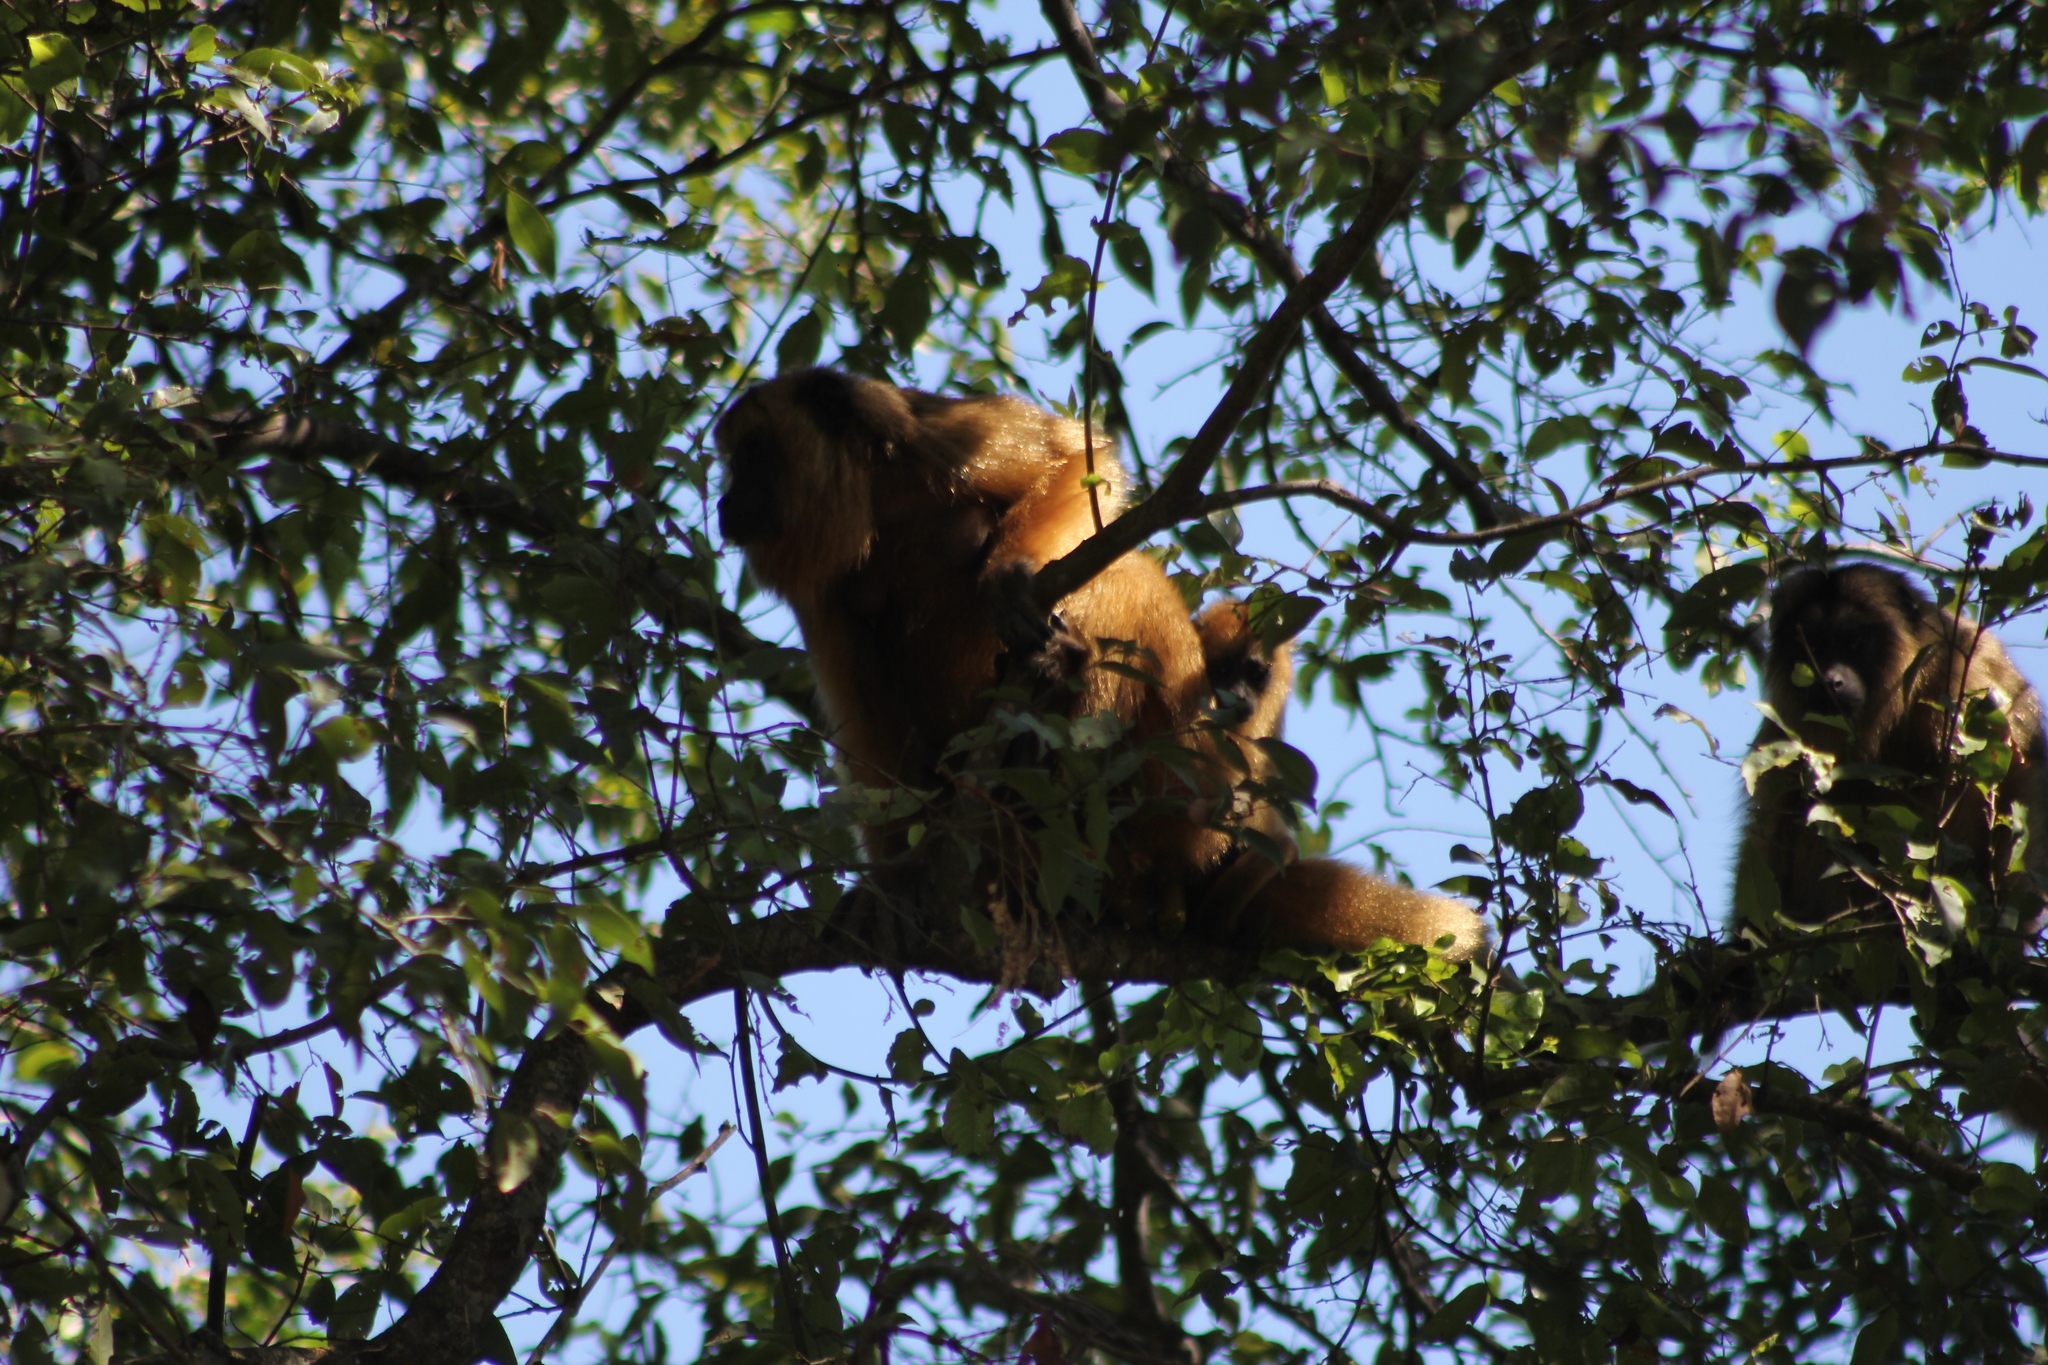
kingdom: Animalia
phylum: Chordata
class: Mammalia
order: Primates
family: Atelidae
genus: Alouatta
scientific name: Alouatta caraya
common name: Black howler
